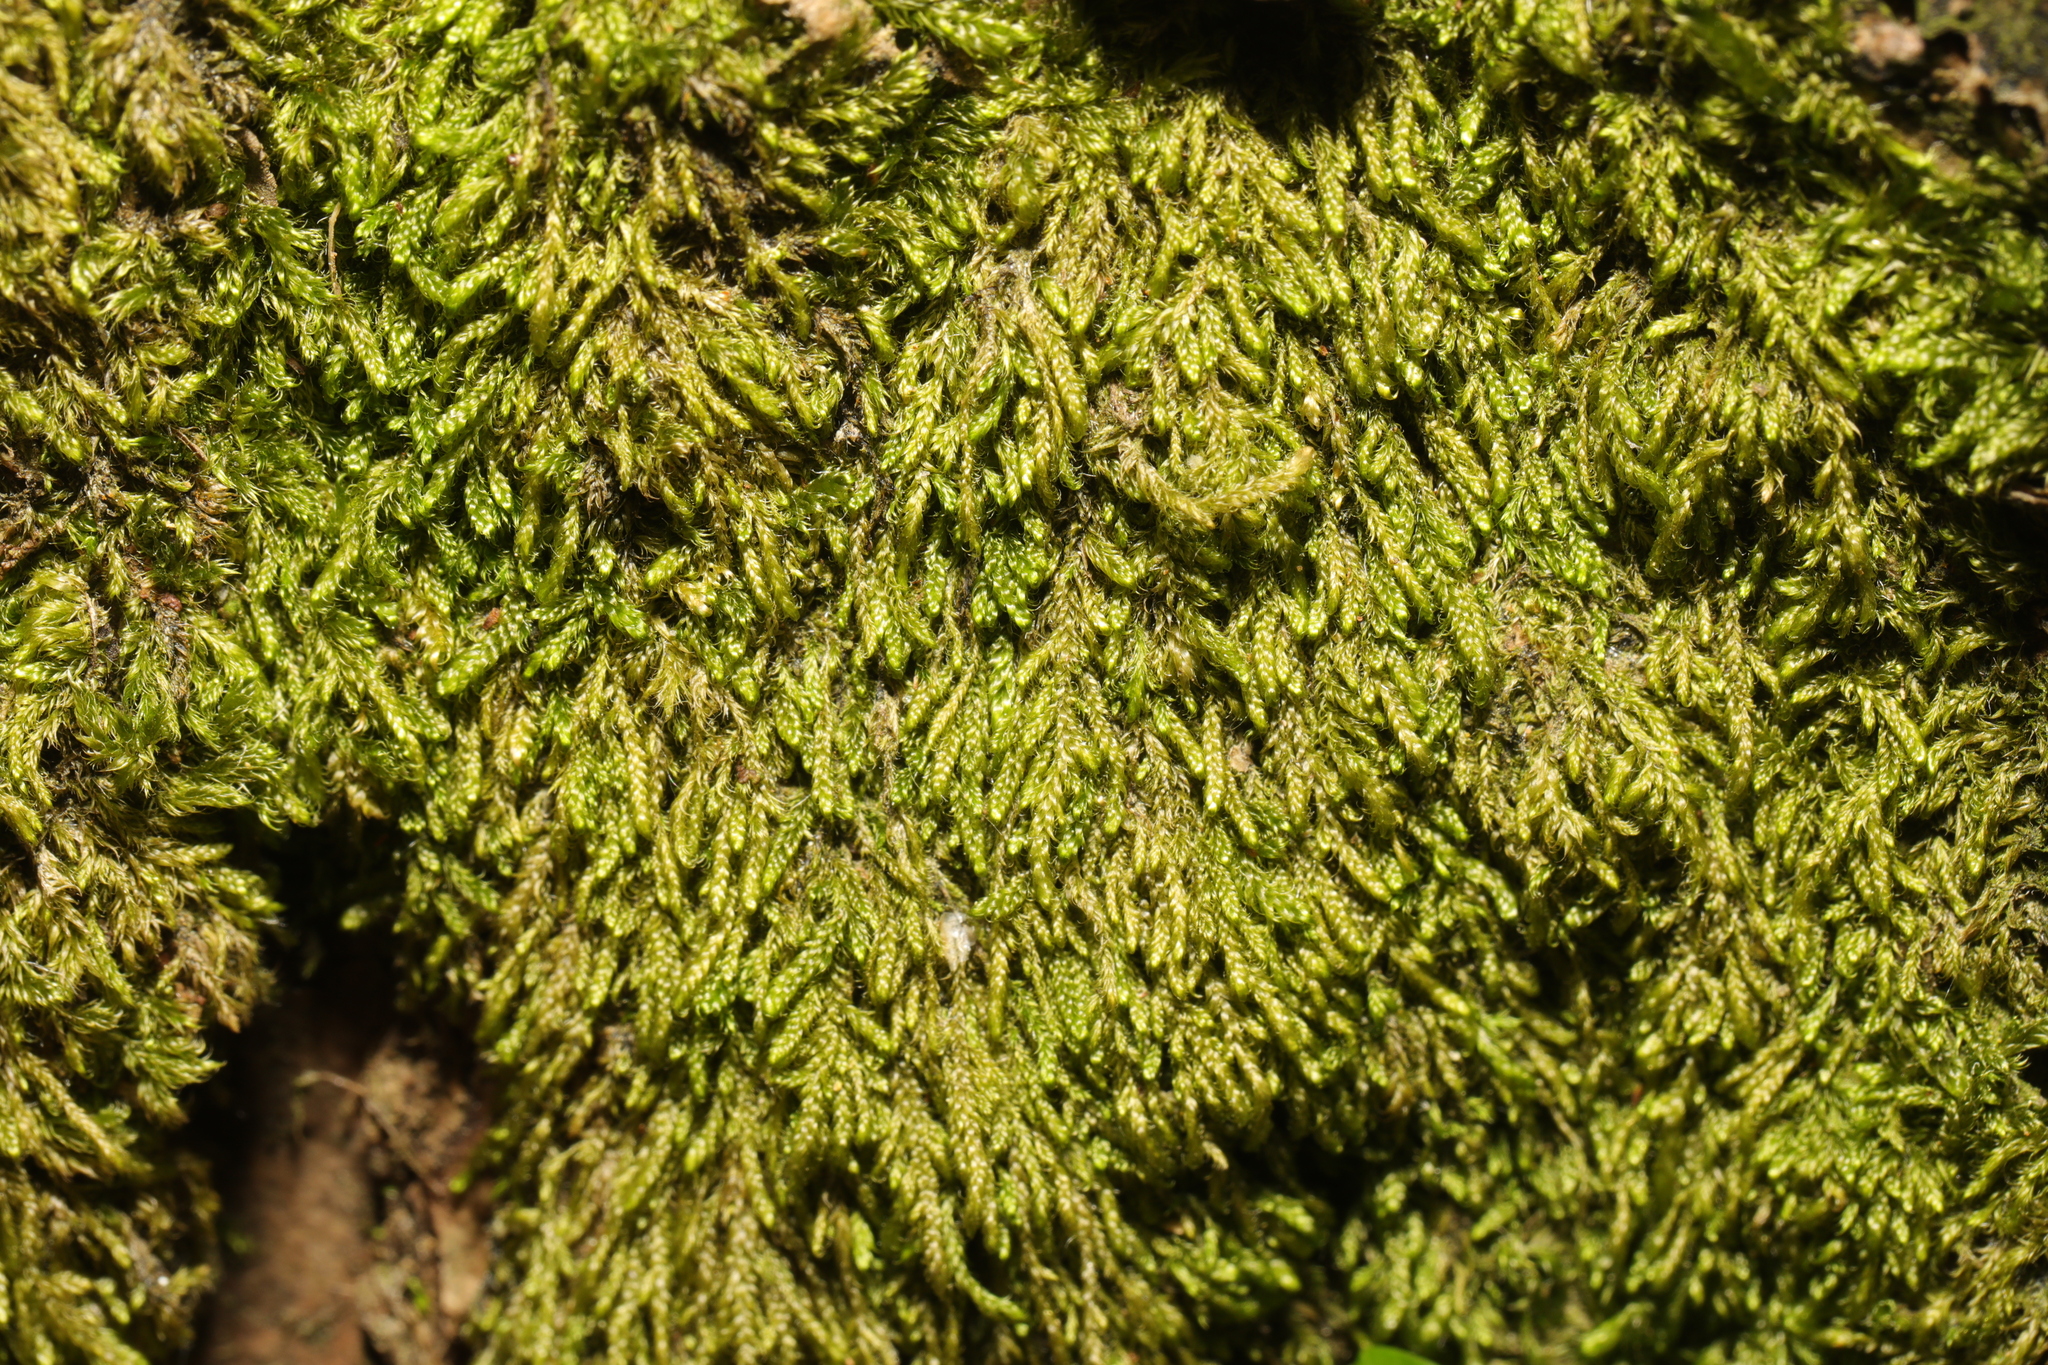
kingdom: Plantae
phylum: Bryophyta
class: Bryopsida
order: Hypnales
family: Hypnaceae
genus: Hypnum
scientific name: Hypnum cupressiforme
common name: Cypress-leaved plait-moss
